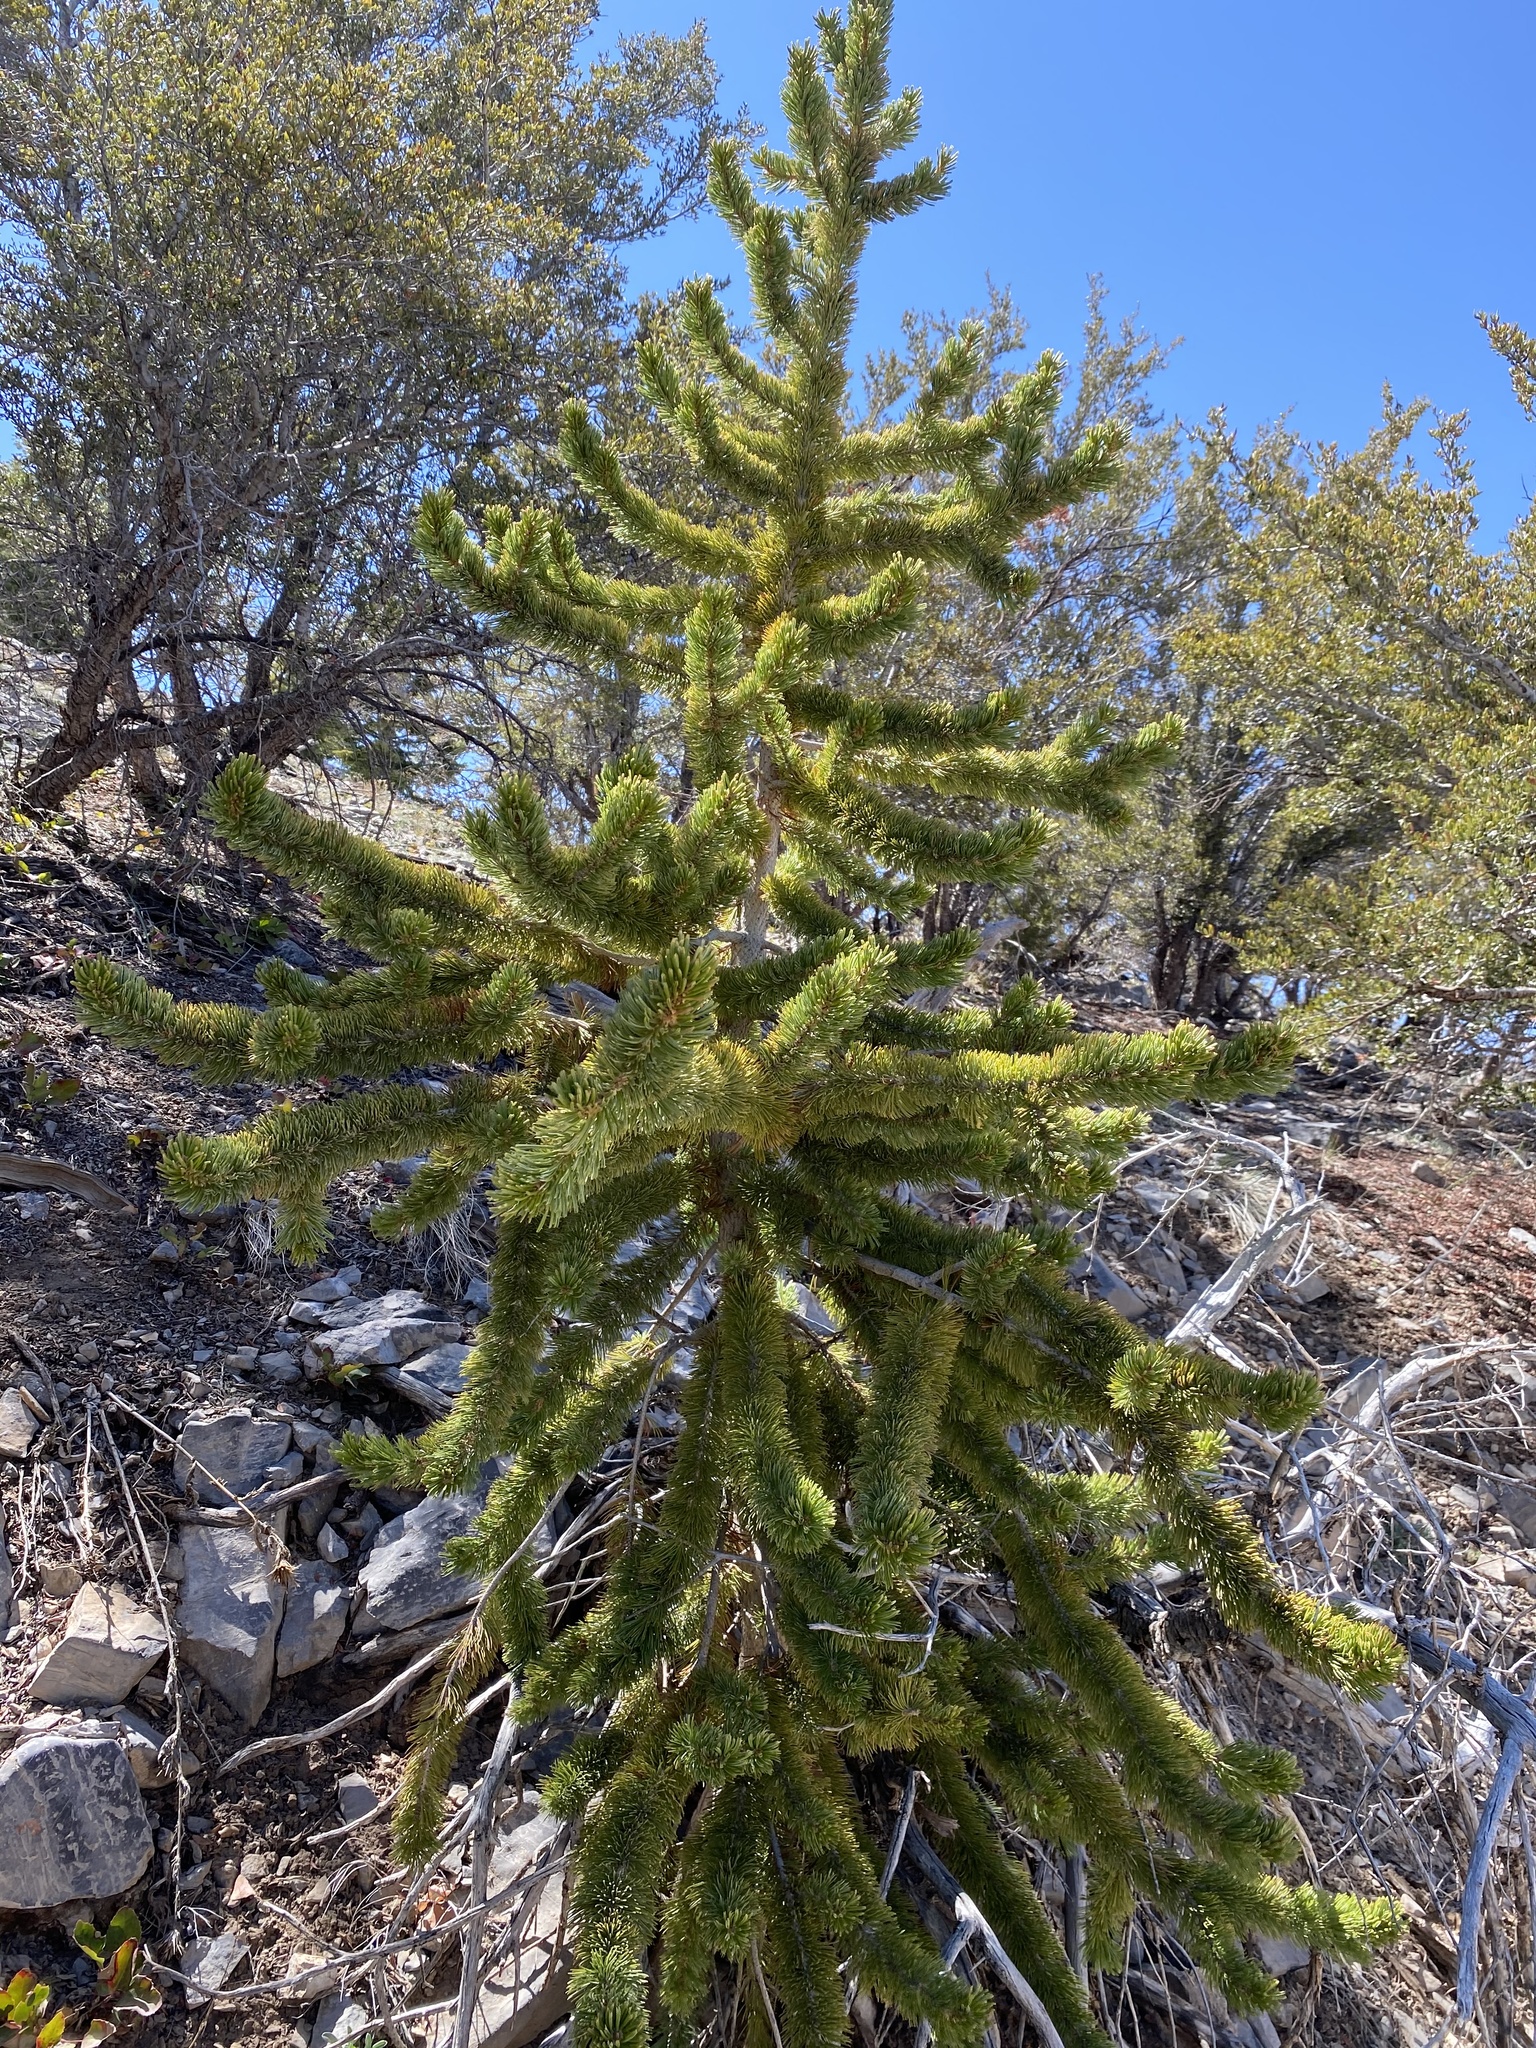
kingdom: Plantae
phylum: Tracheophyta
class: Pinopsida
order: Pinales
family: Pinaceae
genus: Pinus
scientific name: Pinus longaeva
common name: Intermountain bristlecone pine
